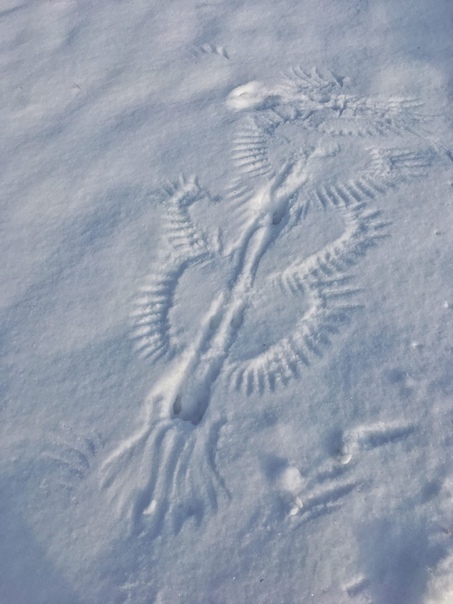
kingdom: Animalia
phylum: Chordata
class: Aves
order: Passeriformes
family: Corvidae
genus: Pica
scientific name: Pica pica
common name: Eurasian magpie
